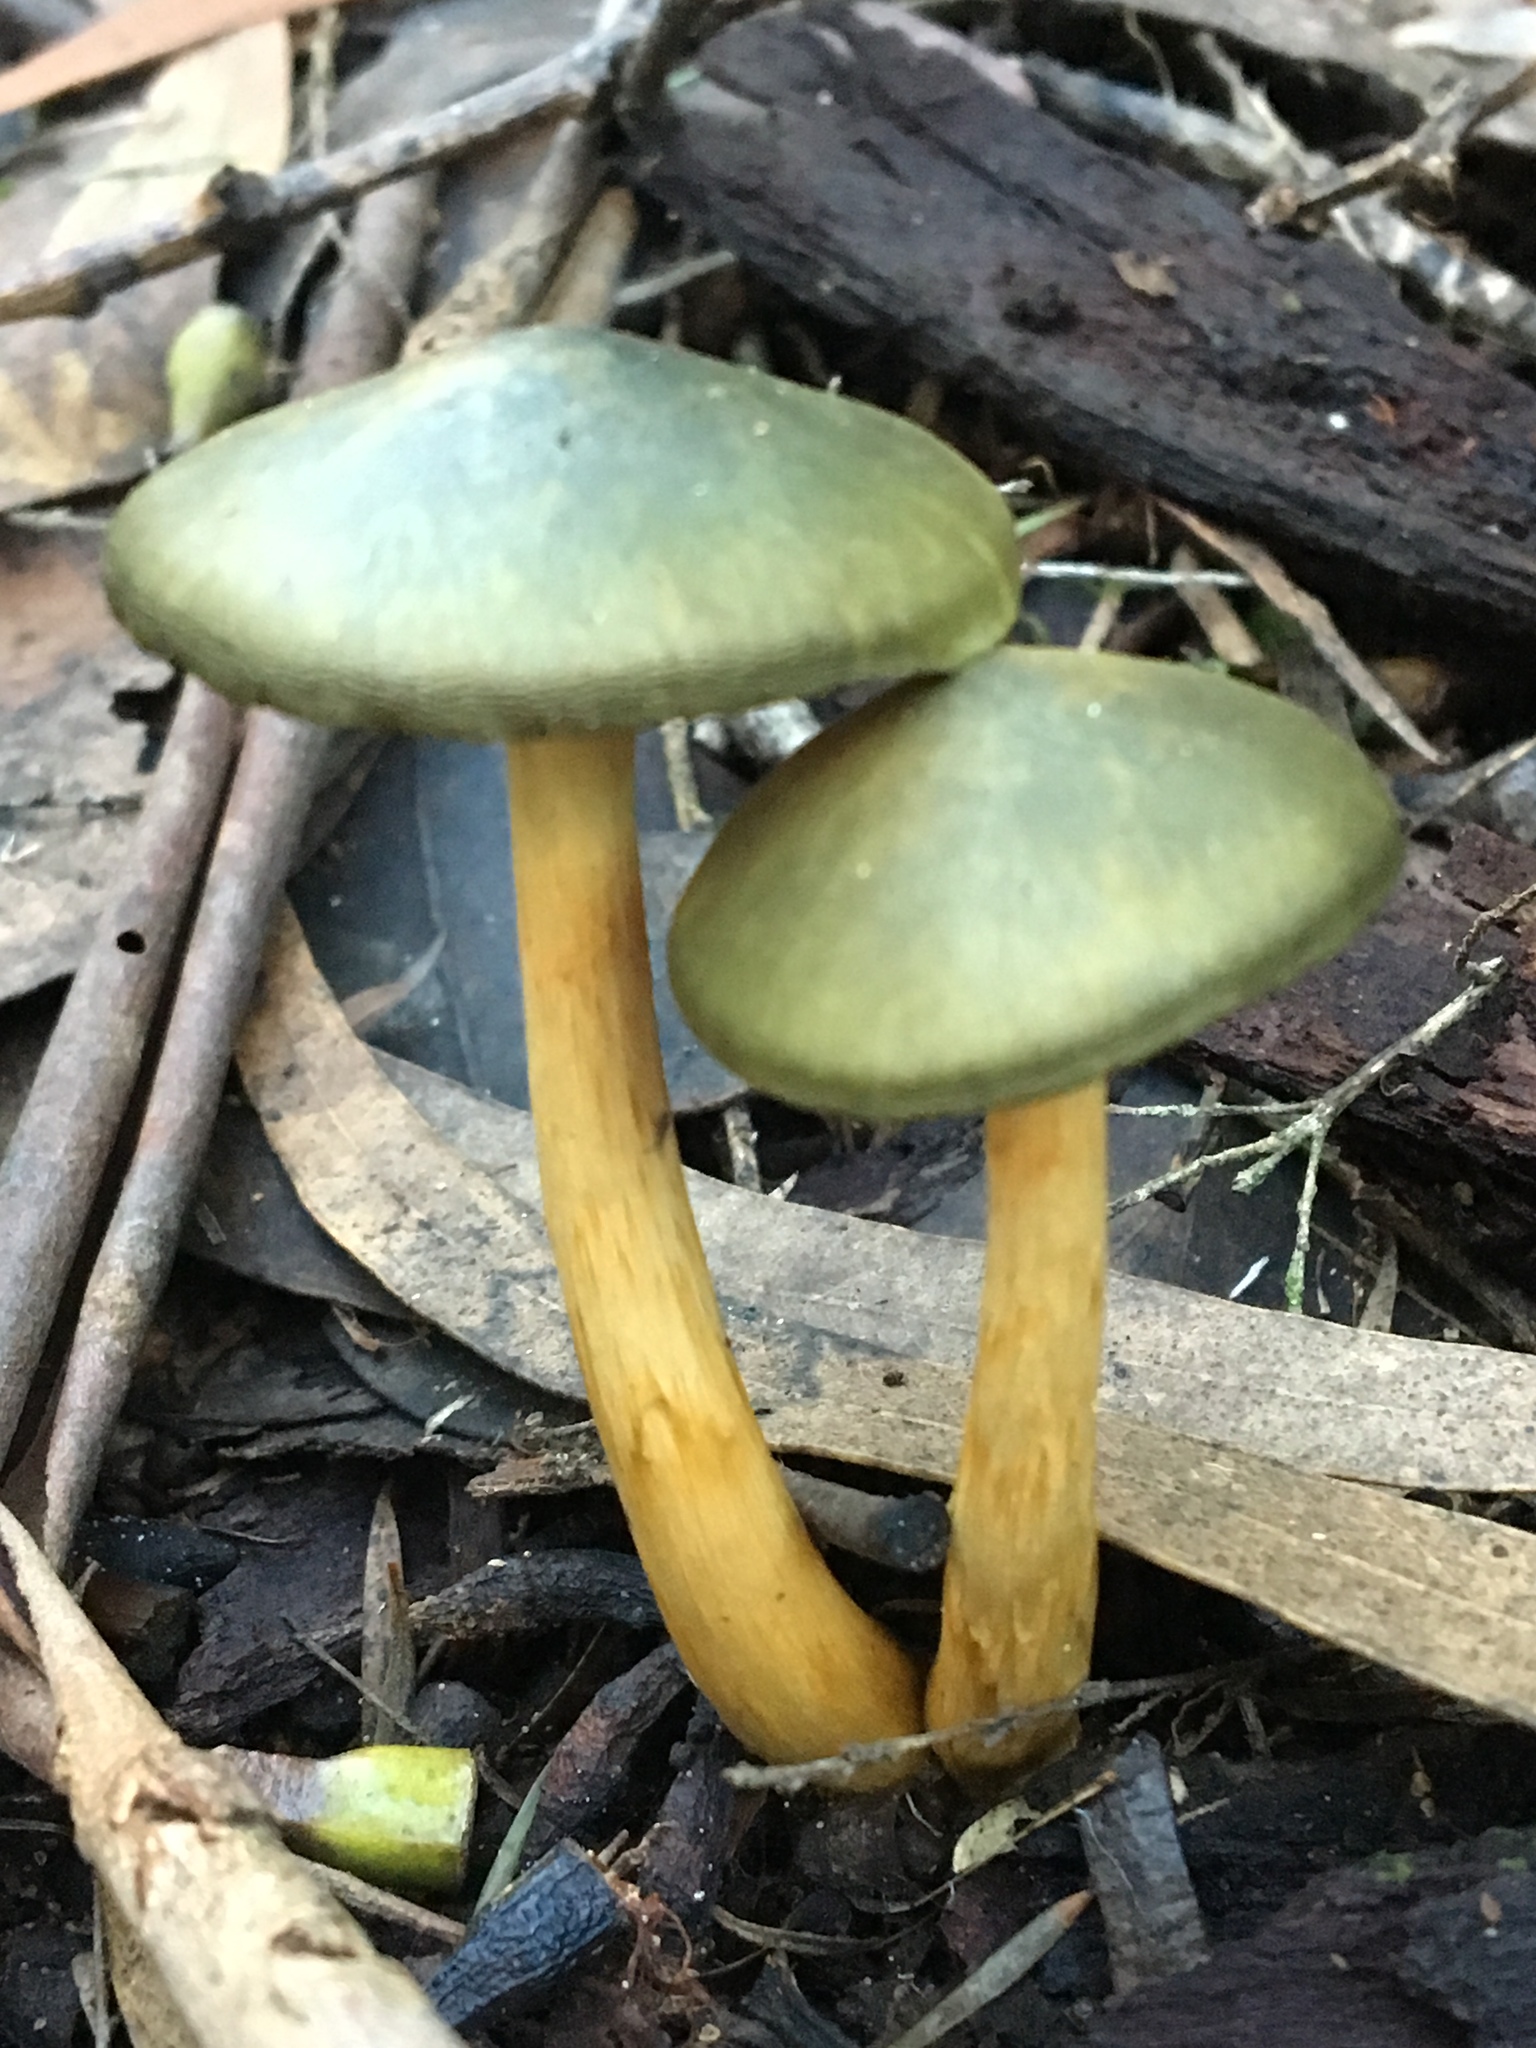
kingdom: Fungi
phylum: Basidiomycota
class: Agaricomycetes
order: Agaricales
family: Cortinariaceae
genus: Cortinarius
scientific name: Cortinarius austrovenetus
